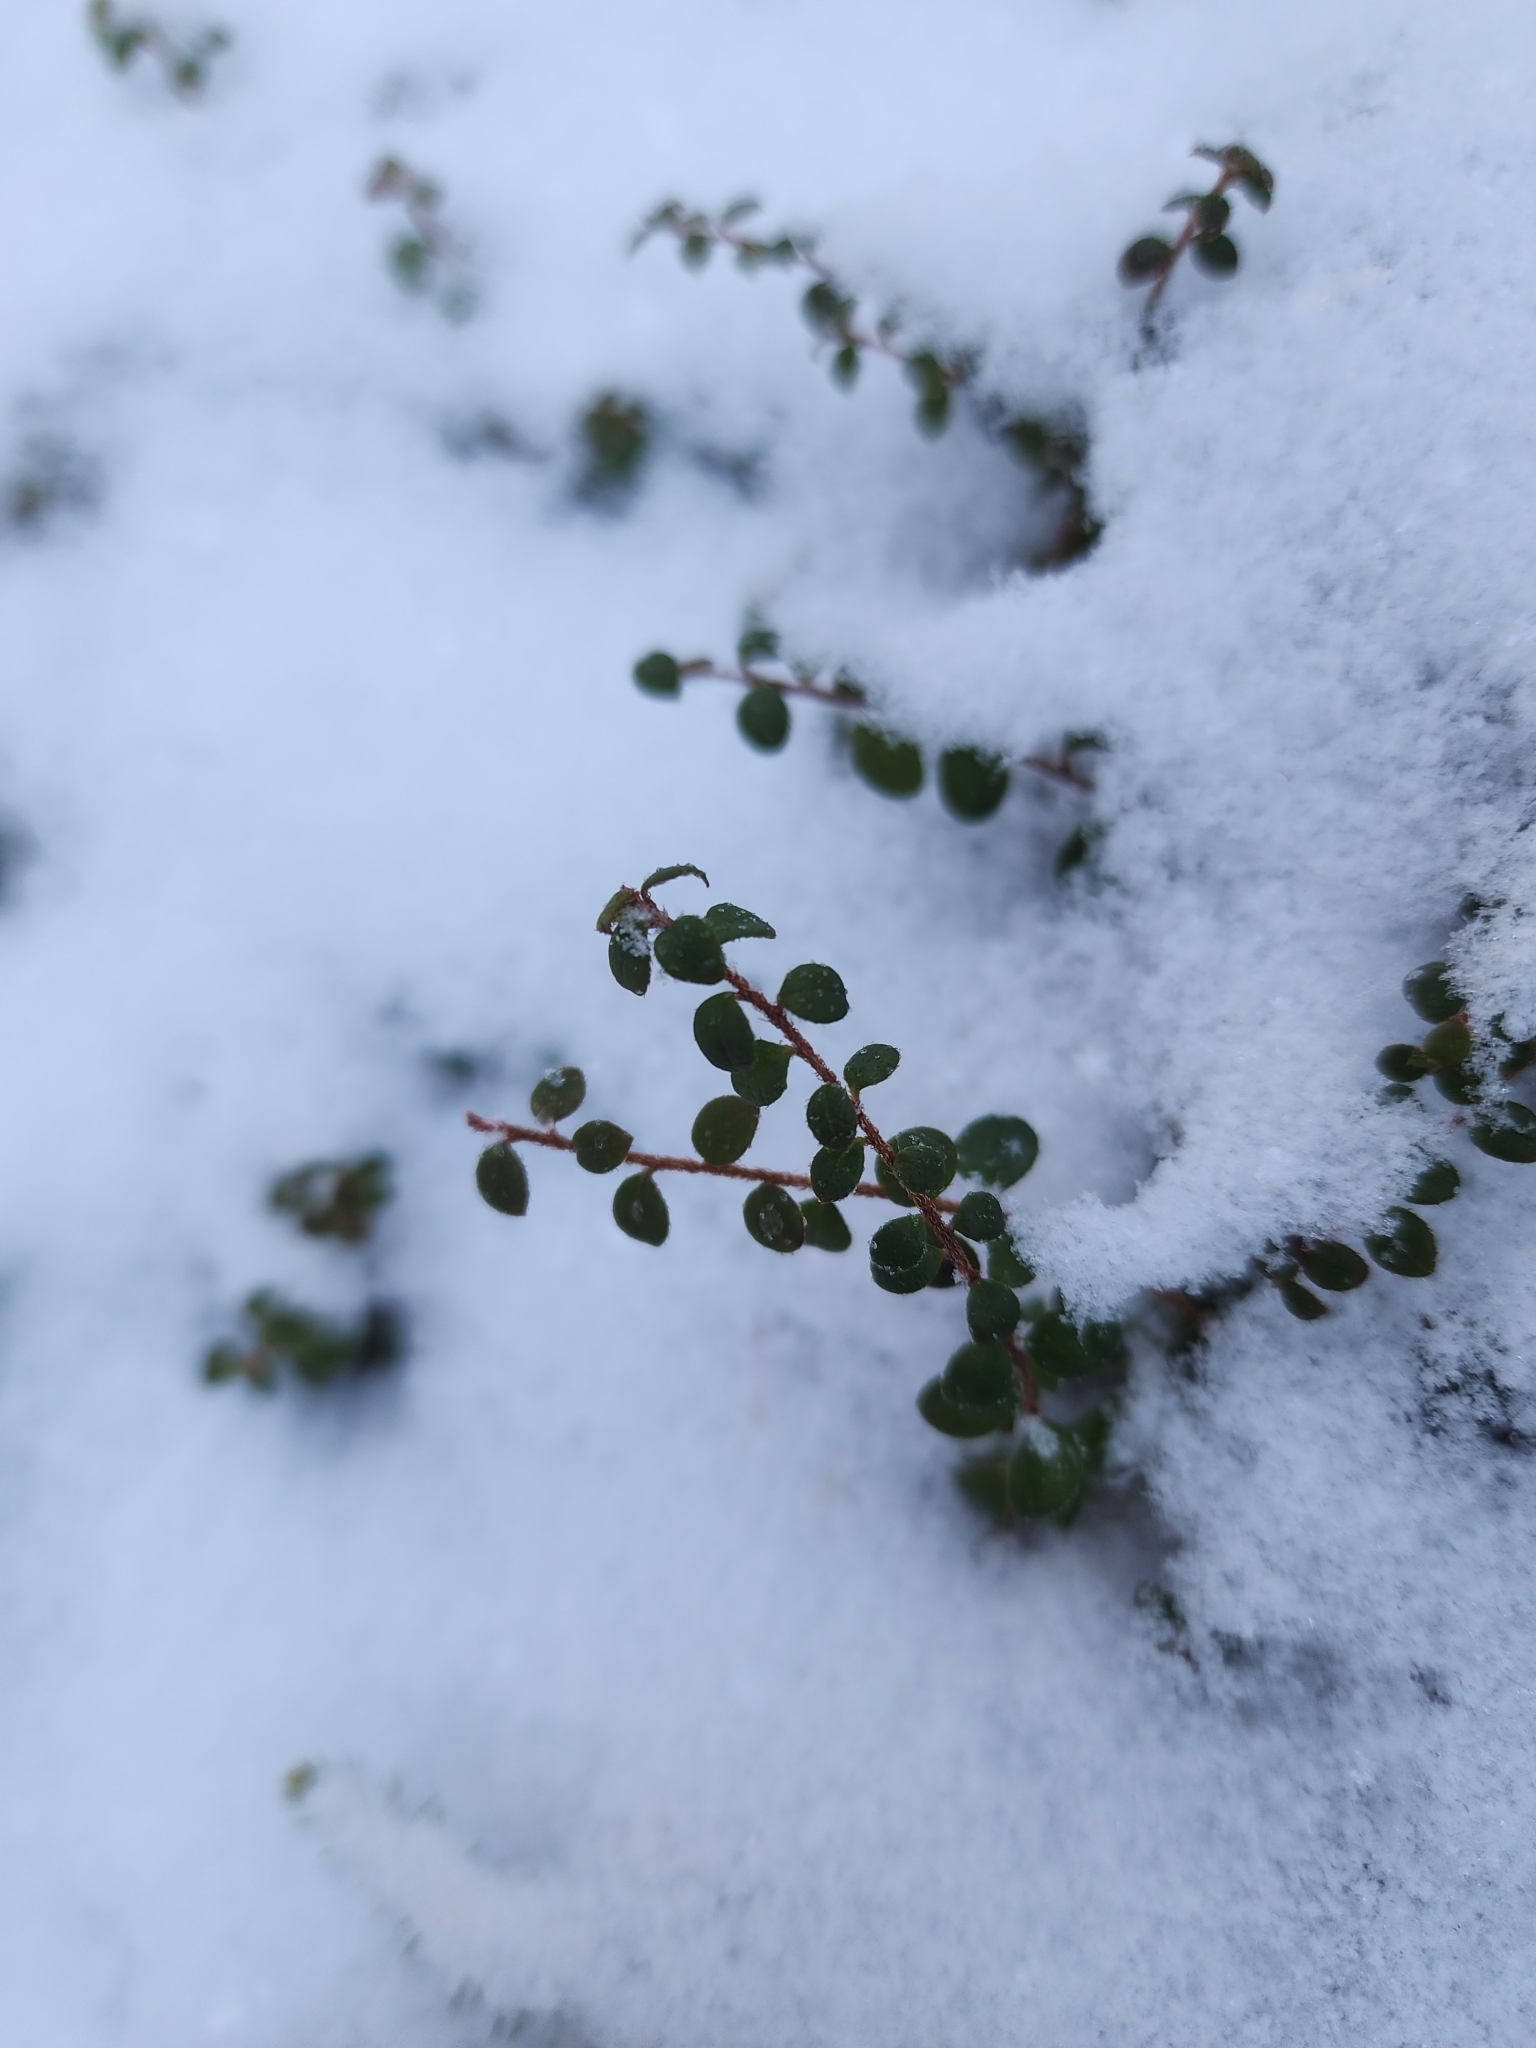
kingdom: Plantae
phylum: Tracheophyta
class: Magnoliopsida
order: Ericales
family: Ericaceae
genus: Gaultheria
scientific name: Gaultheria hispidula
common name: Cancer wintergreen
